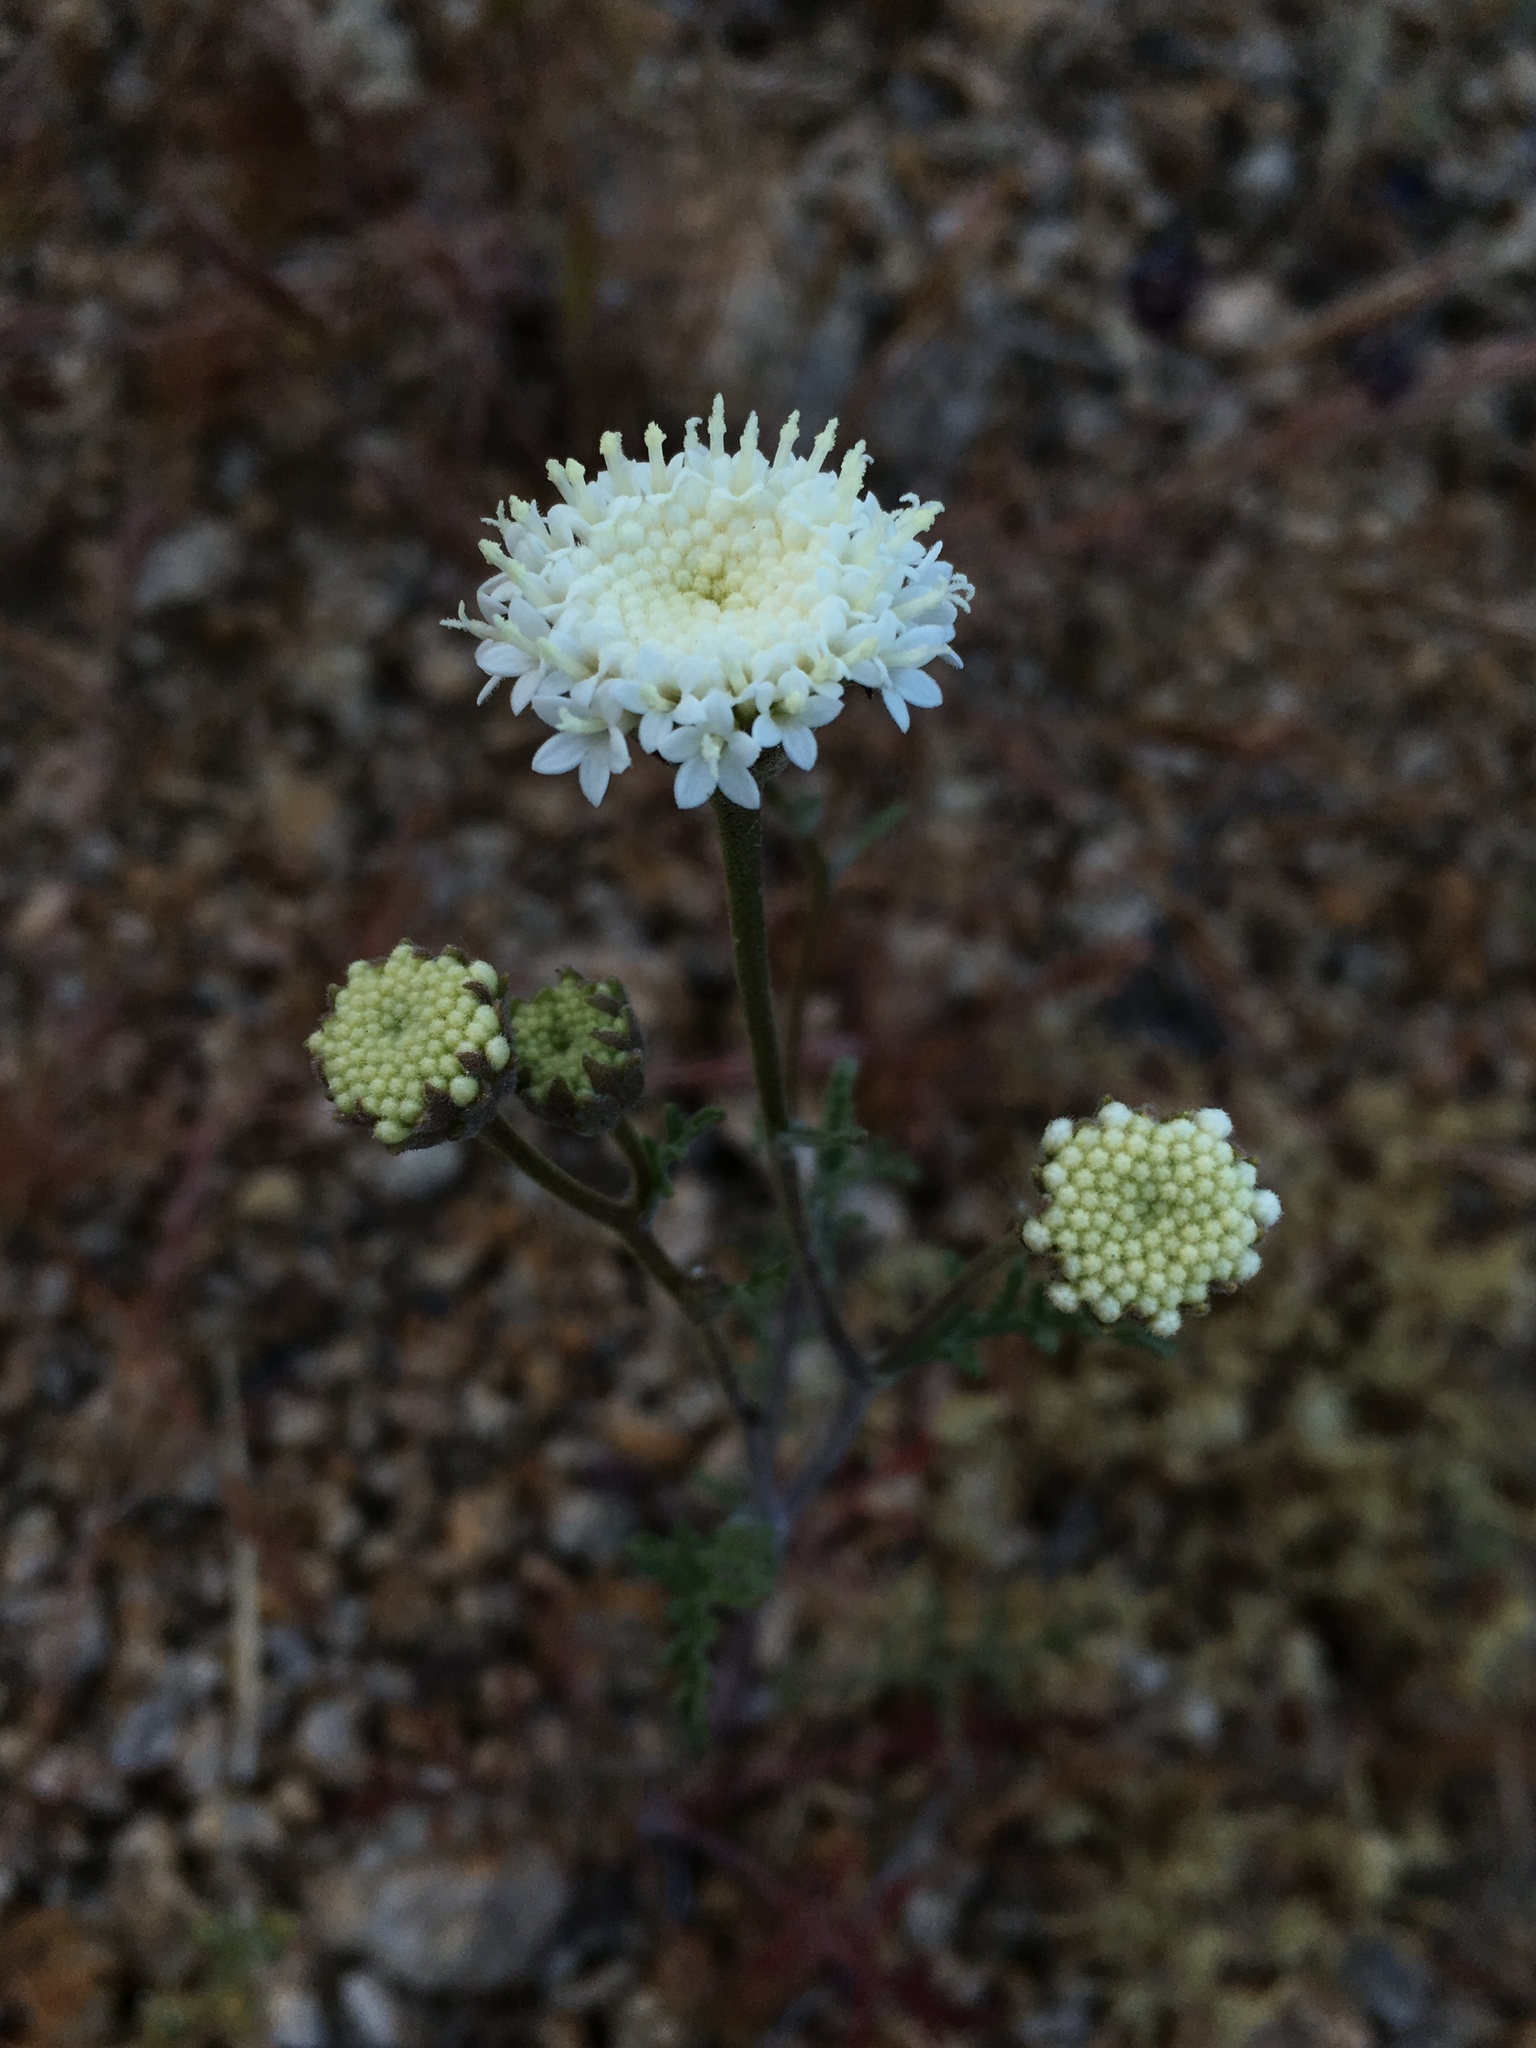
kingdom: Plantae
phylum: Tracheophyta
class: Magnoliopsida
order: Asterales
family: Asteraceae
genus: Chaenactis
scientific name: Chaenactis stevioides
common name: Desert pincushion
